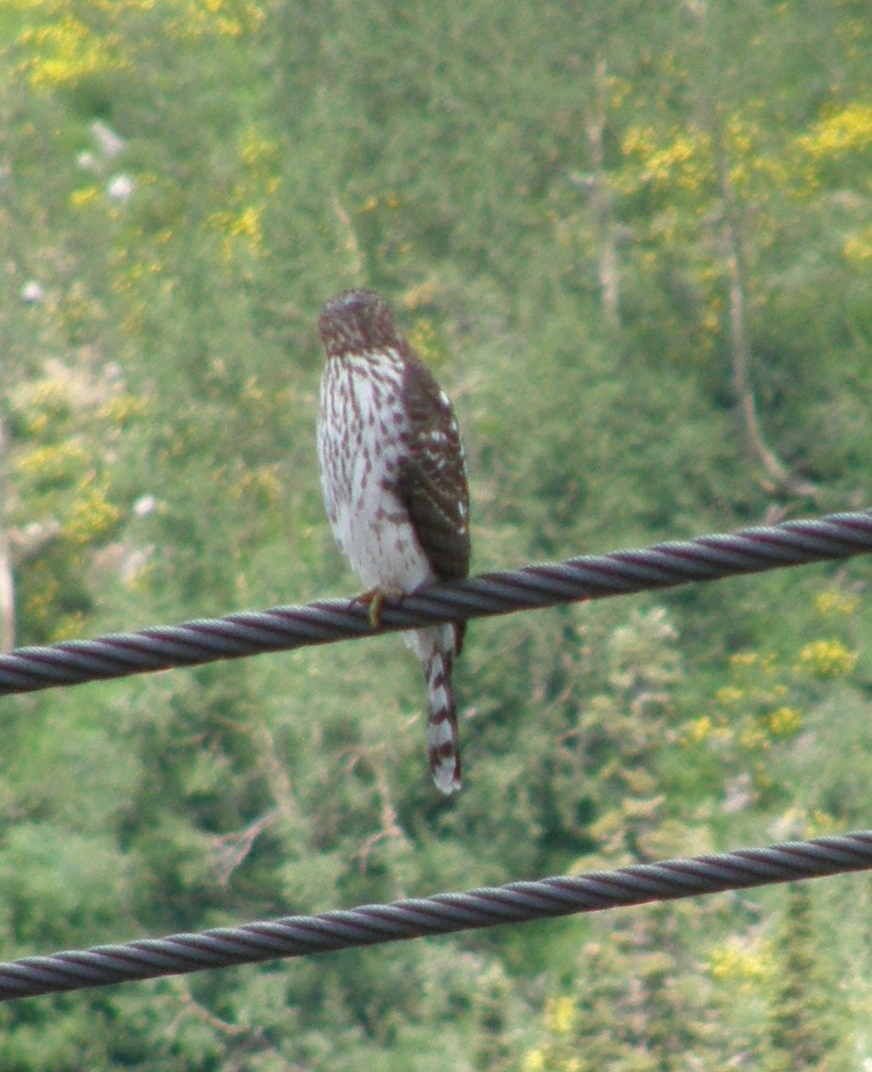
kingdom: Animalia
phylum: Chordata
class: Aves
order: Accipitriformes
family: Accipitridae
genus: Accipiter
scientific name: Accipiter cooperii
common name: Cooper's hawk
